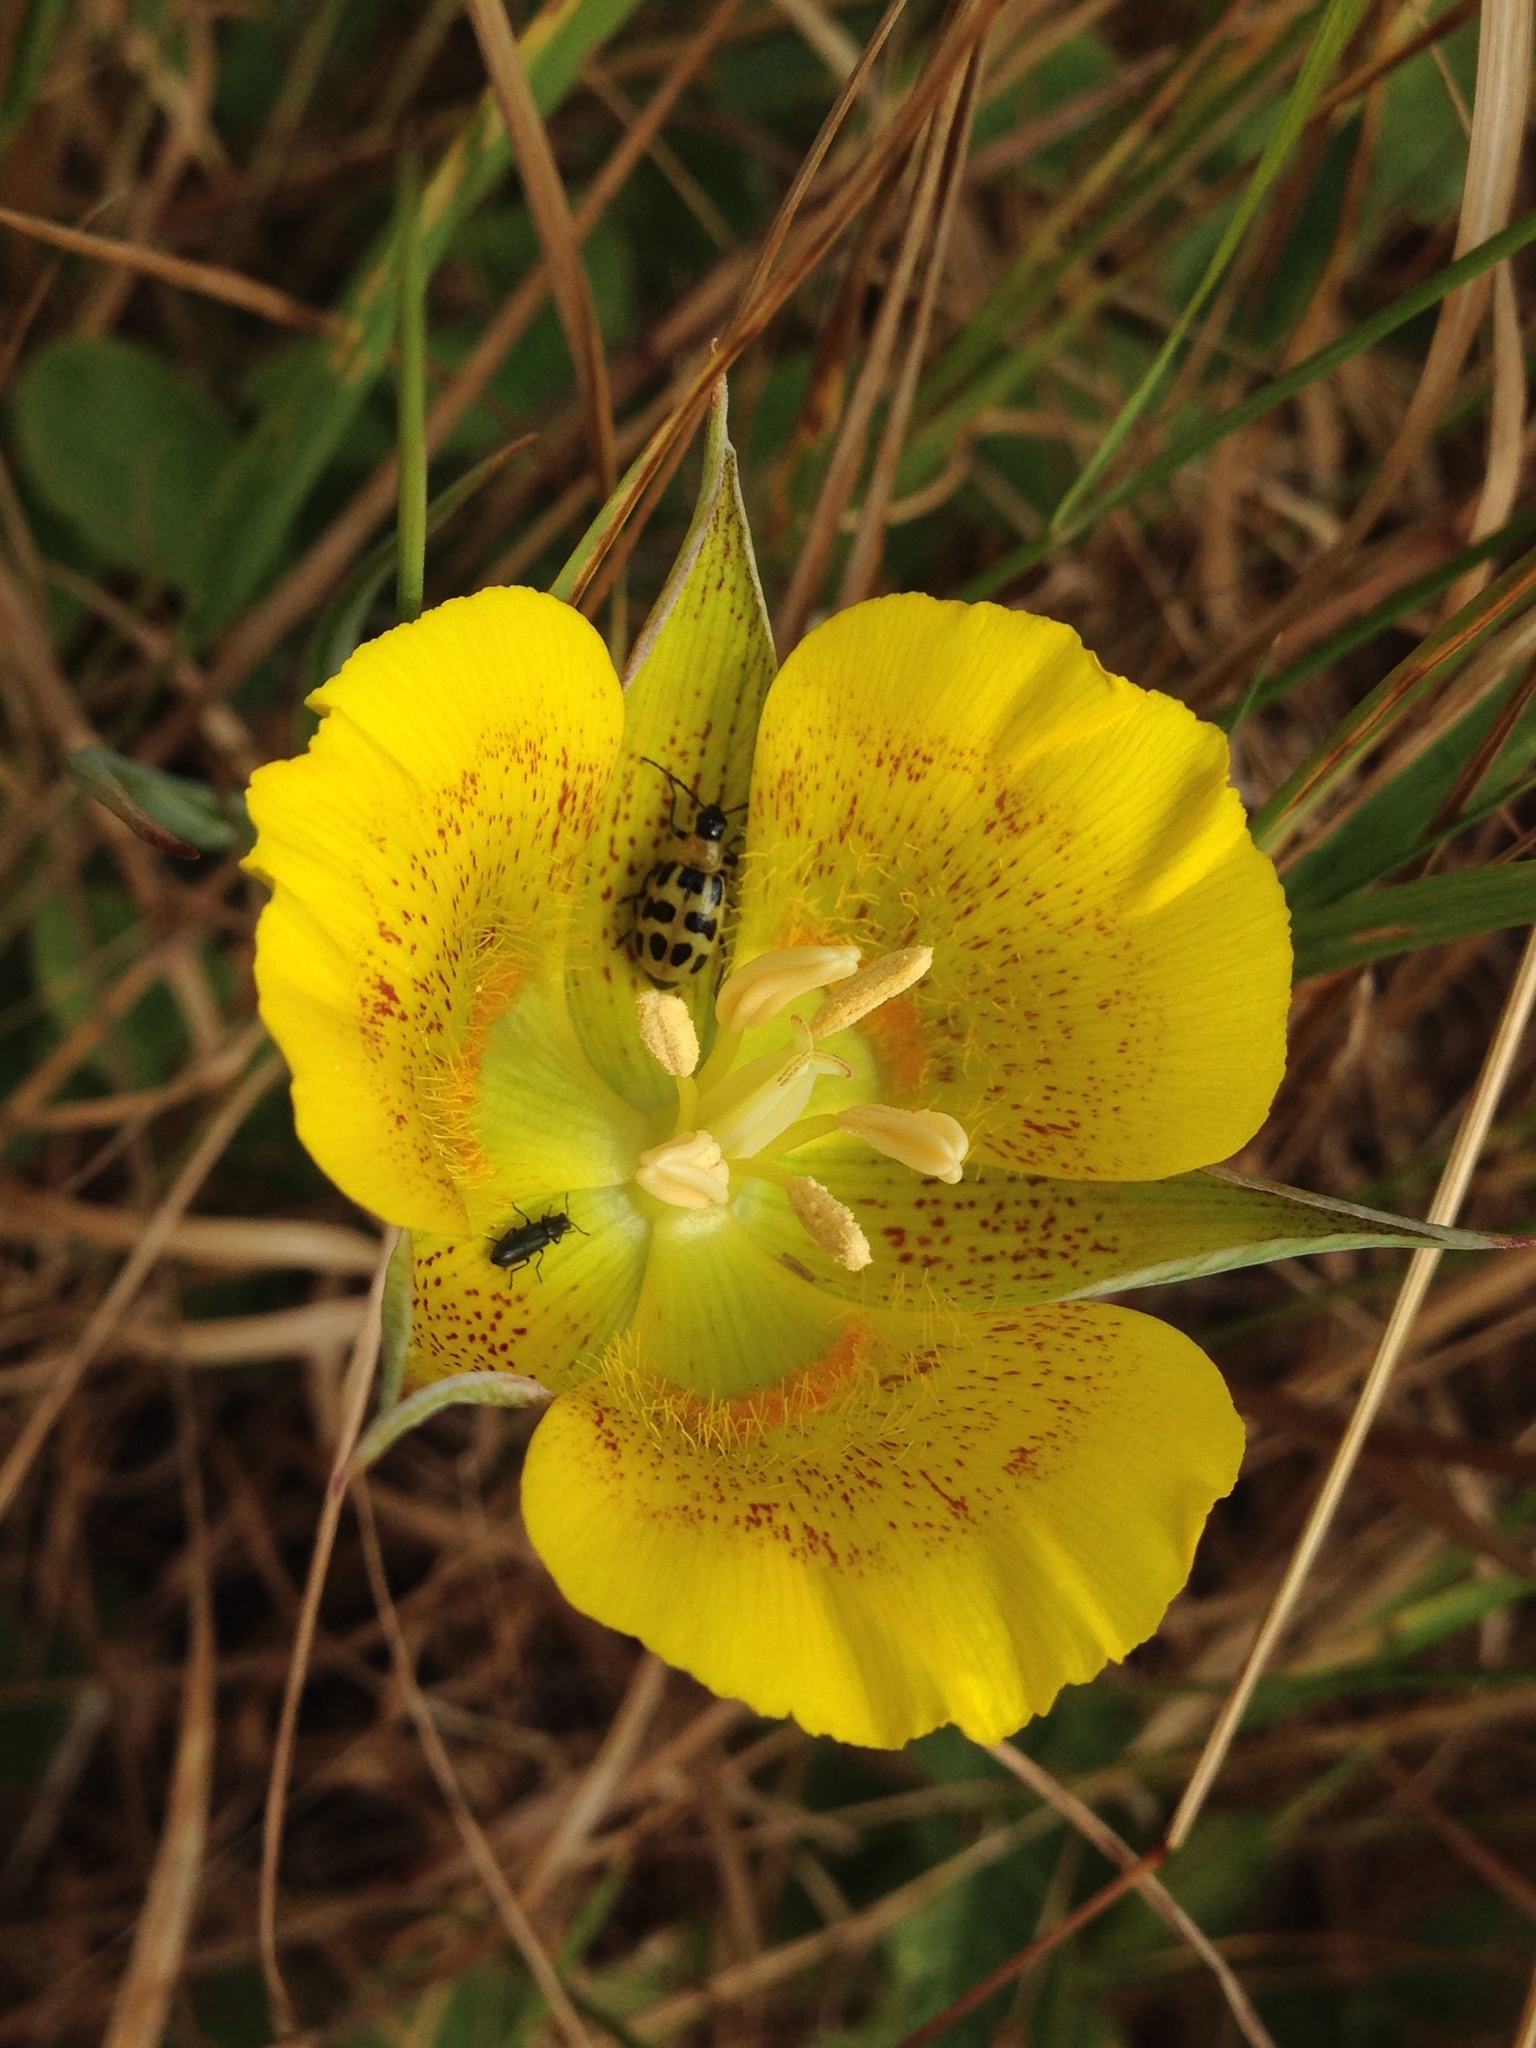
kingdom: Plantae
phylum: Tracheophyta
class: Liliopsida
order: Liliales
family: Liliaceae
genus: Calochortus
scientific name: Calochortus luteus
